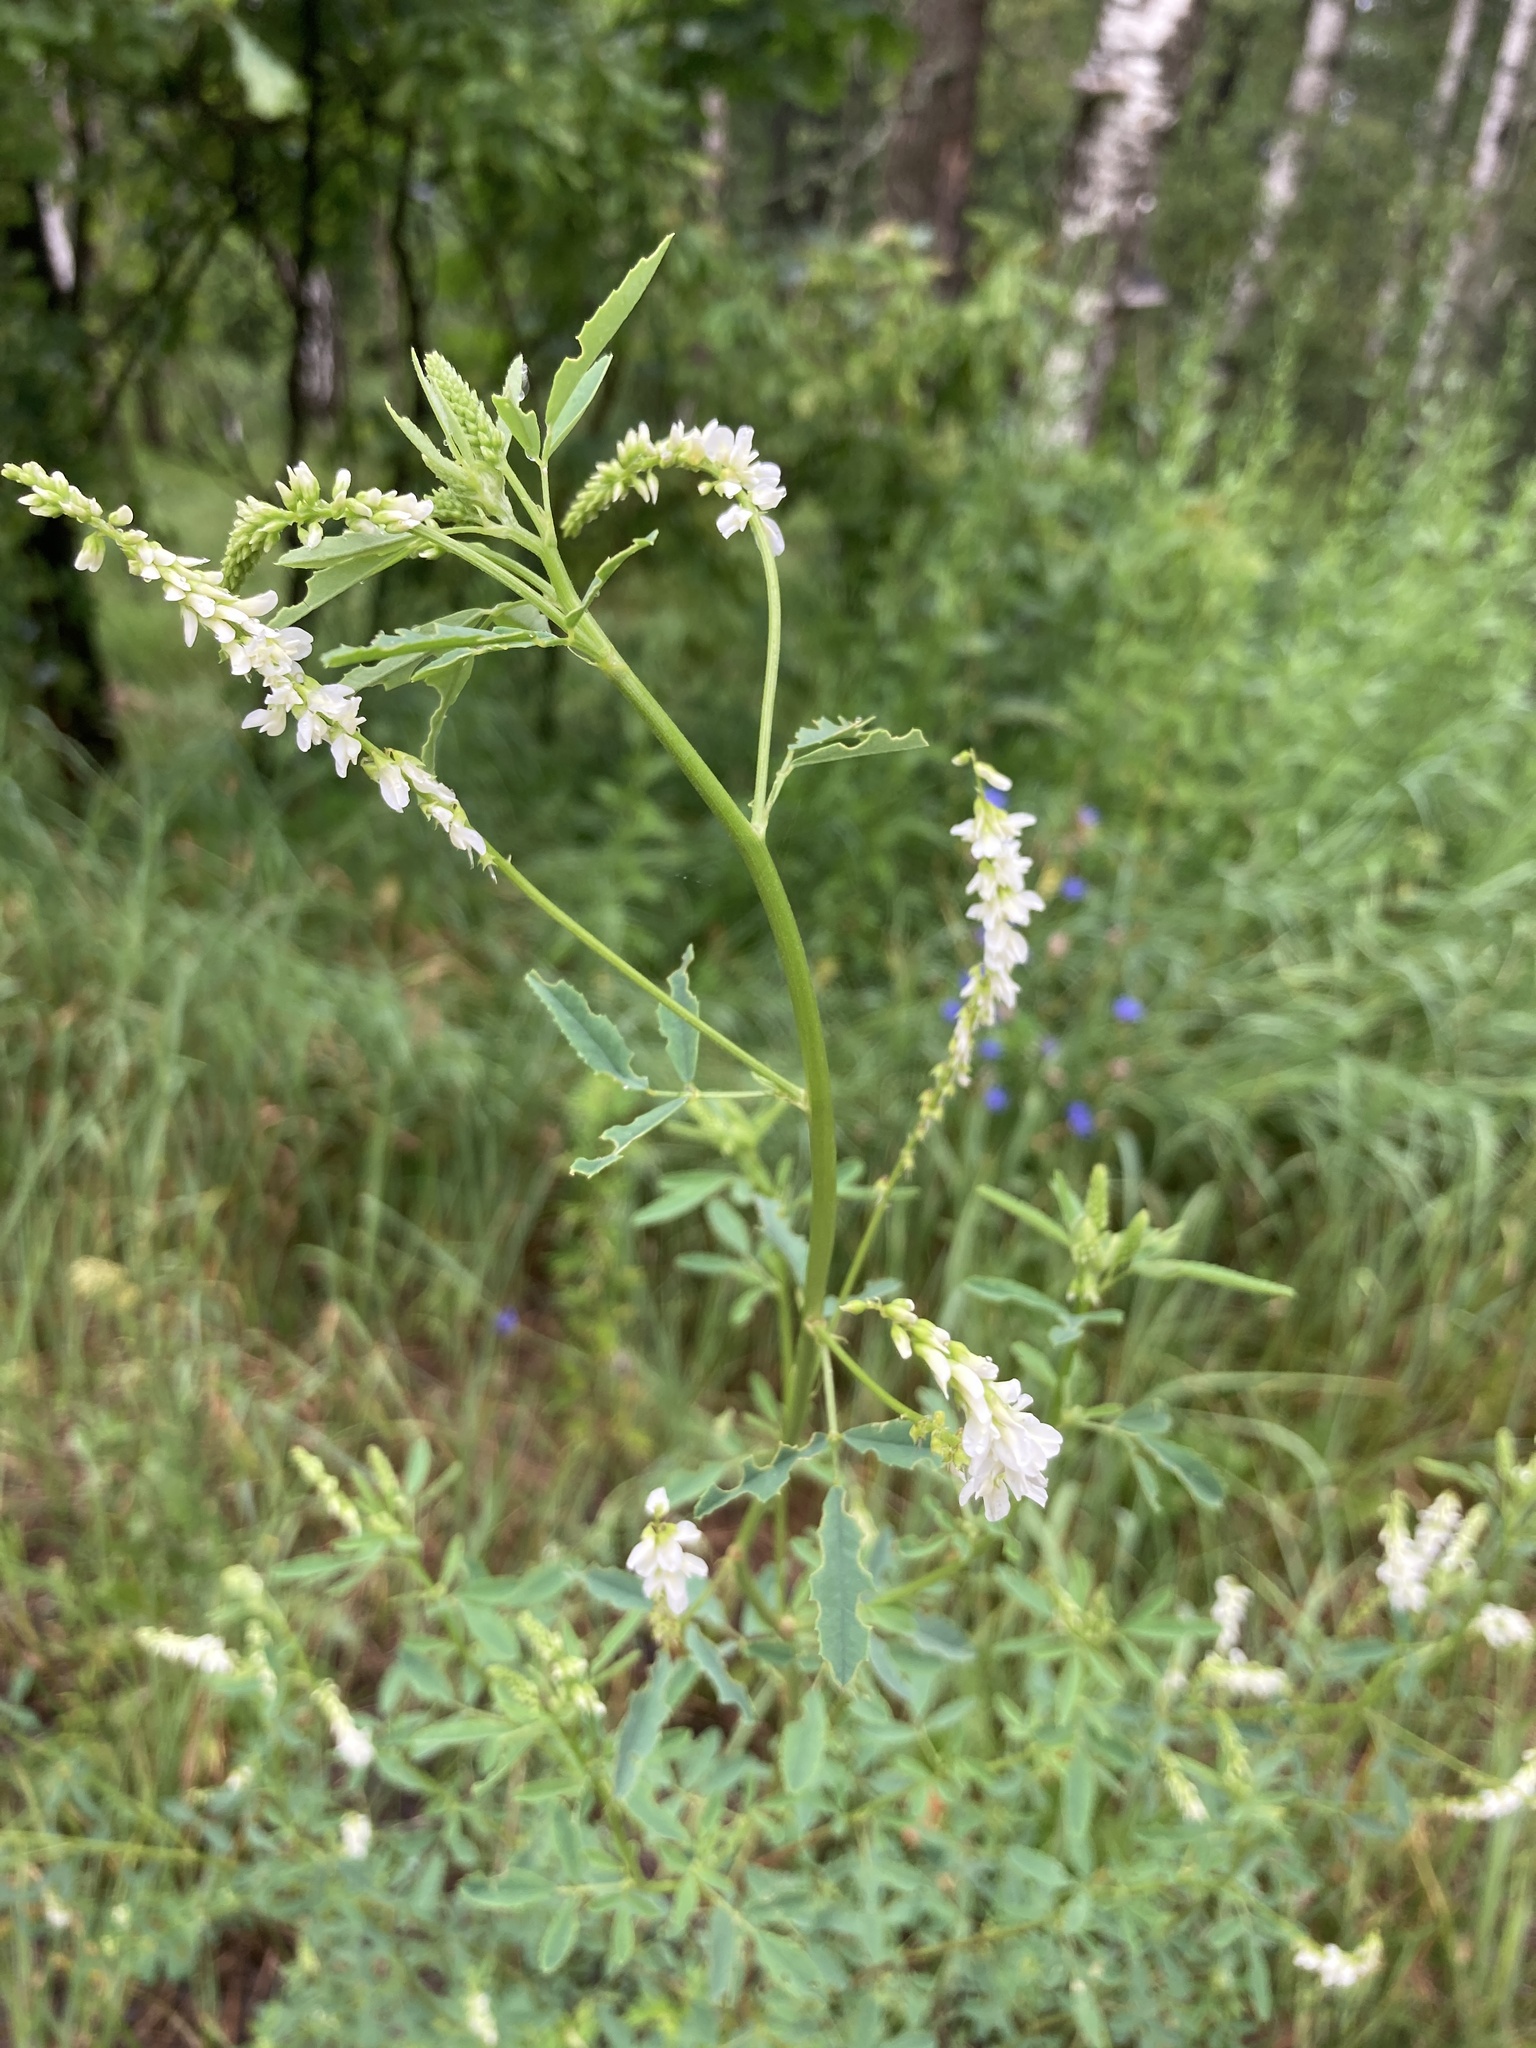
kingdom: Plantae
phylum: Tracheophyta
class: Magnoliopsida
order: Fabales
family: Fabaceae
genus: Melilotus
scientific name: Melilotus albus
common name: White melilot
